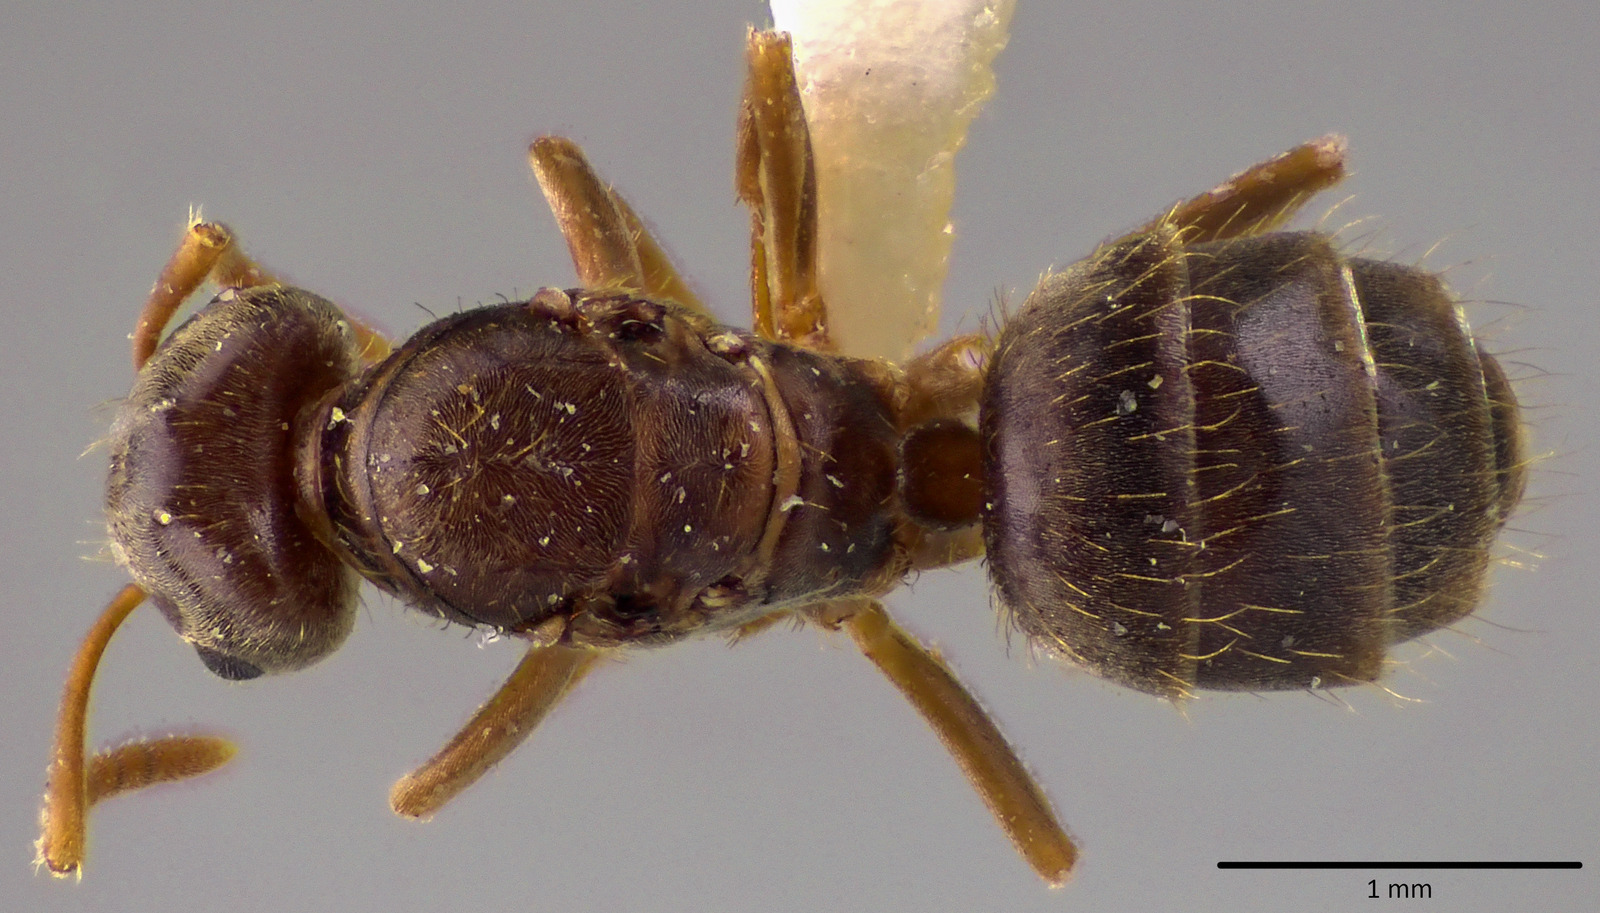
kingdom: Animalia
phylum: Arthropoda
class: Insecta
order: Hymenoptera
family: Formicidae
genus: Lasius
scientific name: Lasius minutus
